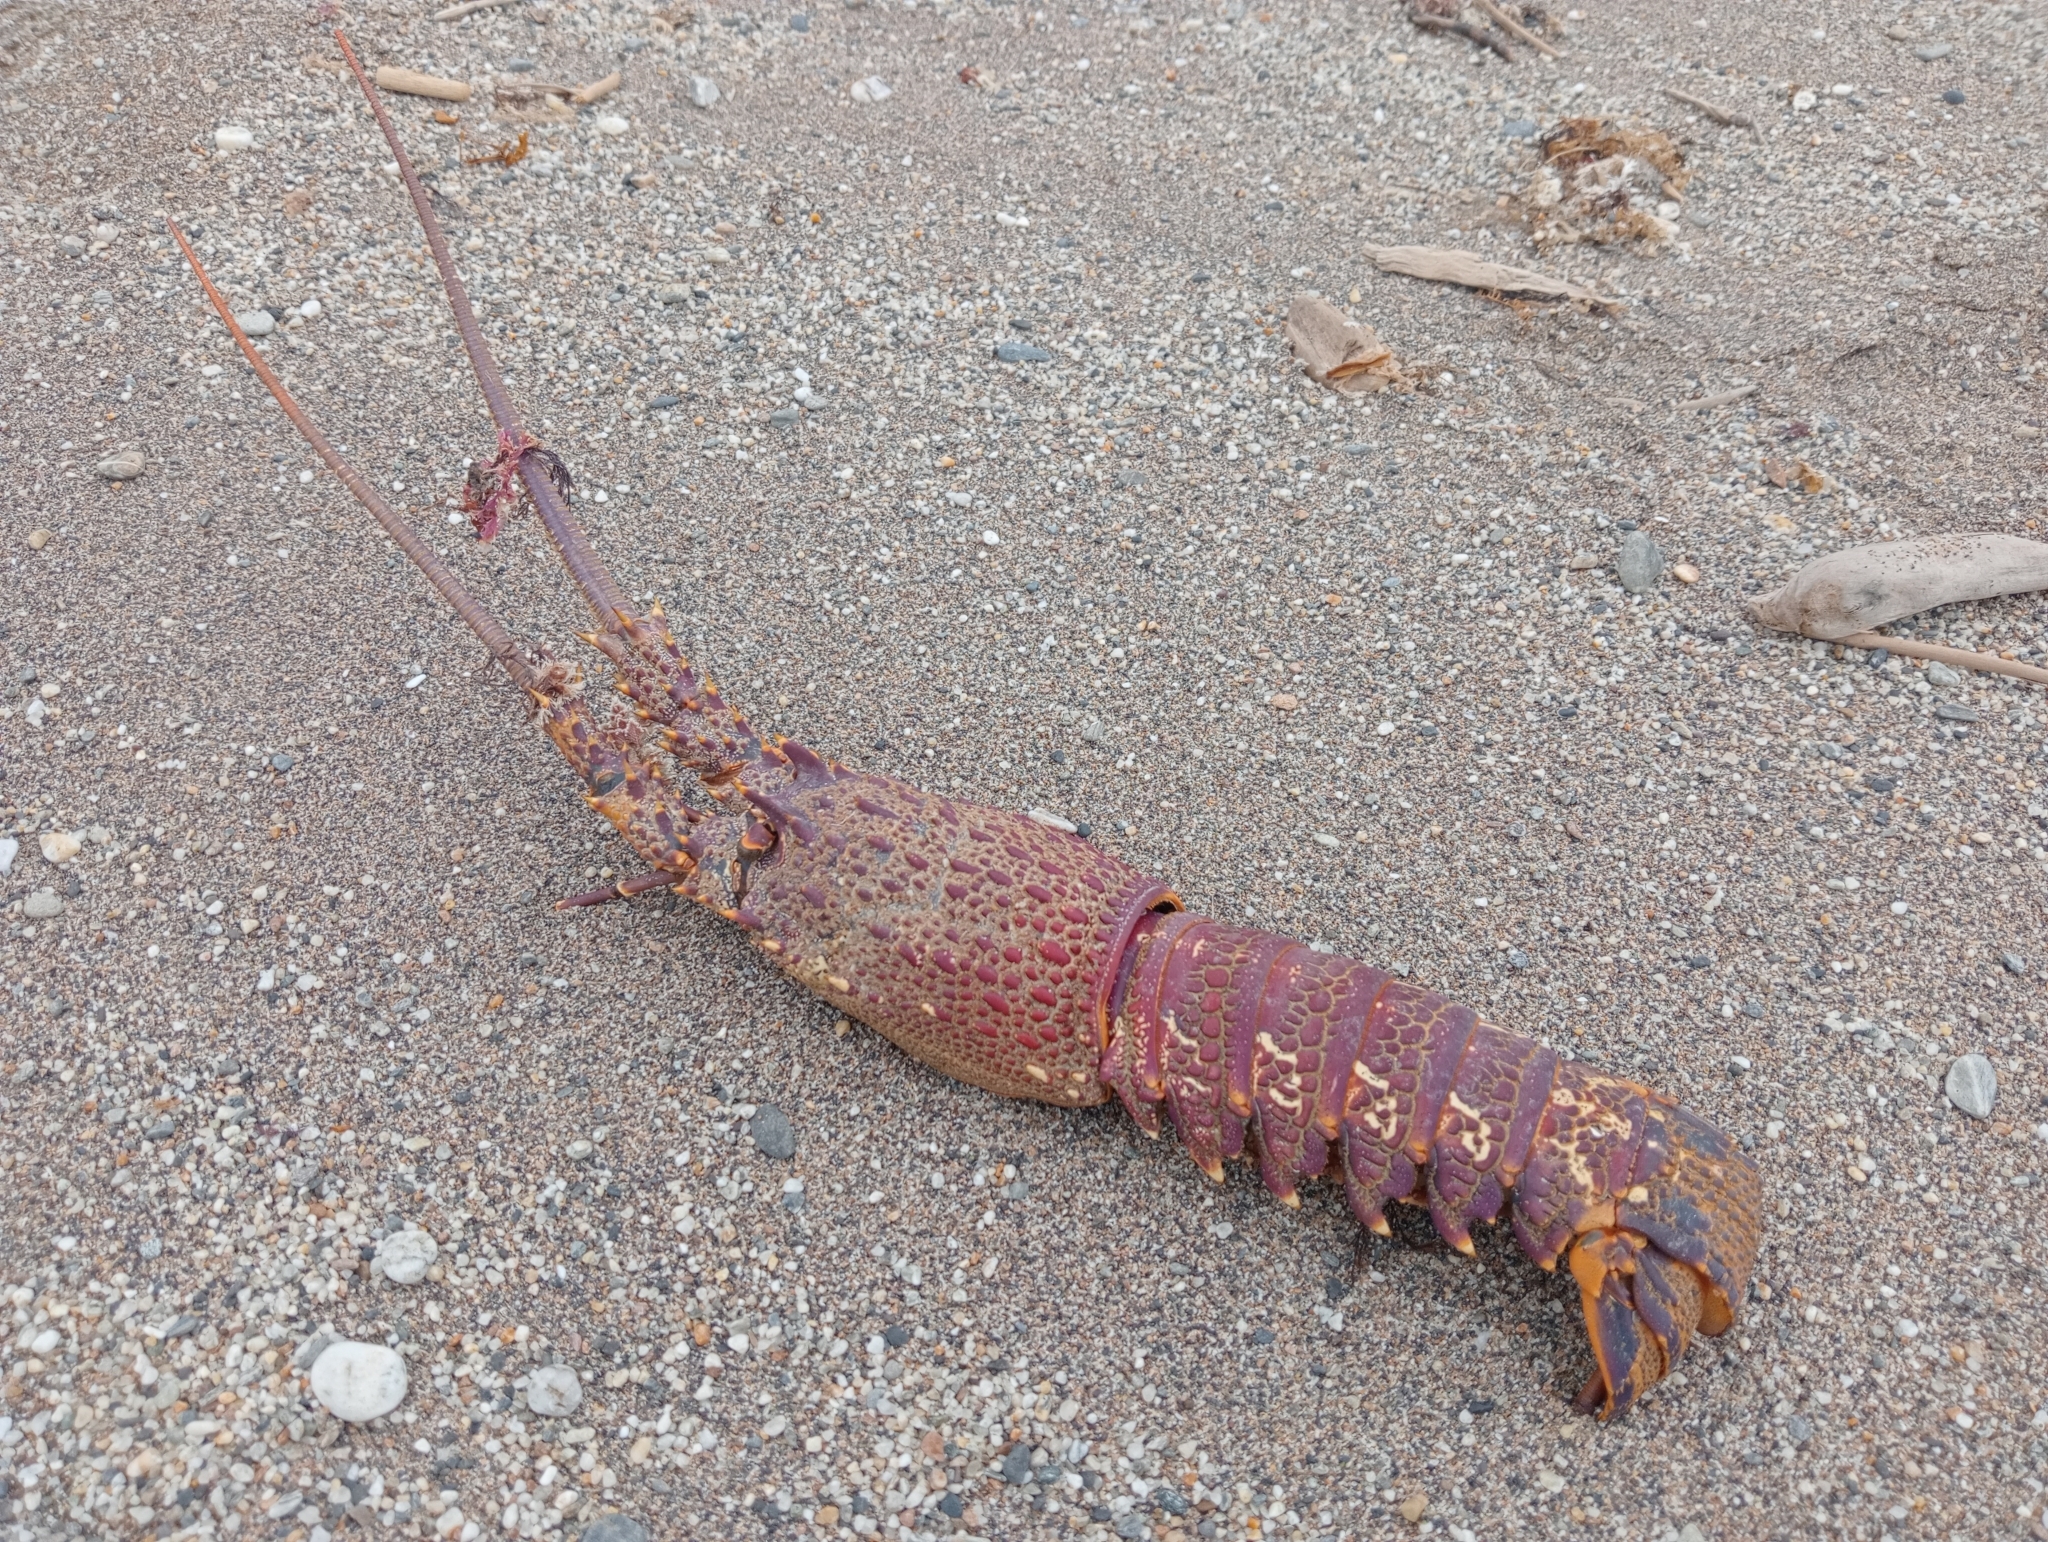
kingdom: Animalia
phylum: Arthropoda
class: Malacostraca
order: Decapoda
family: Palinuridae
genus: Jasus
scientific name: Jasus edwardsii
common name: Red rock lobster
